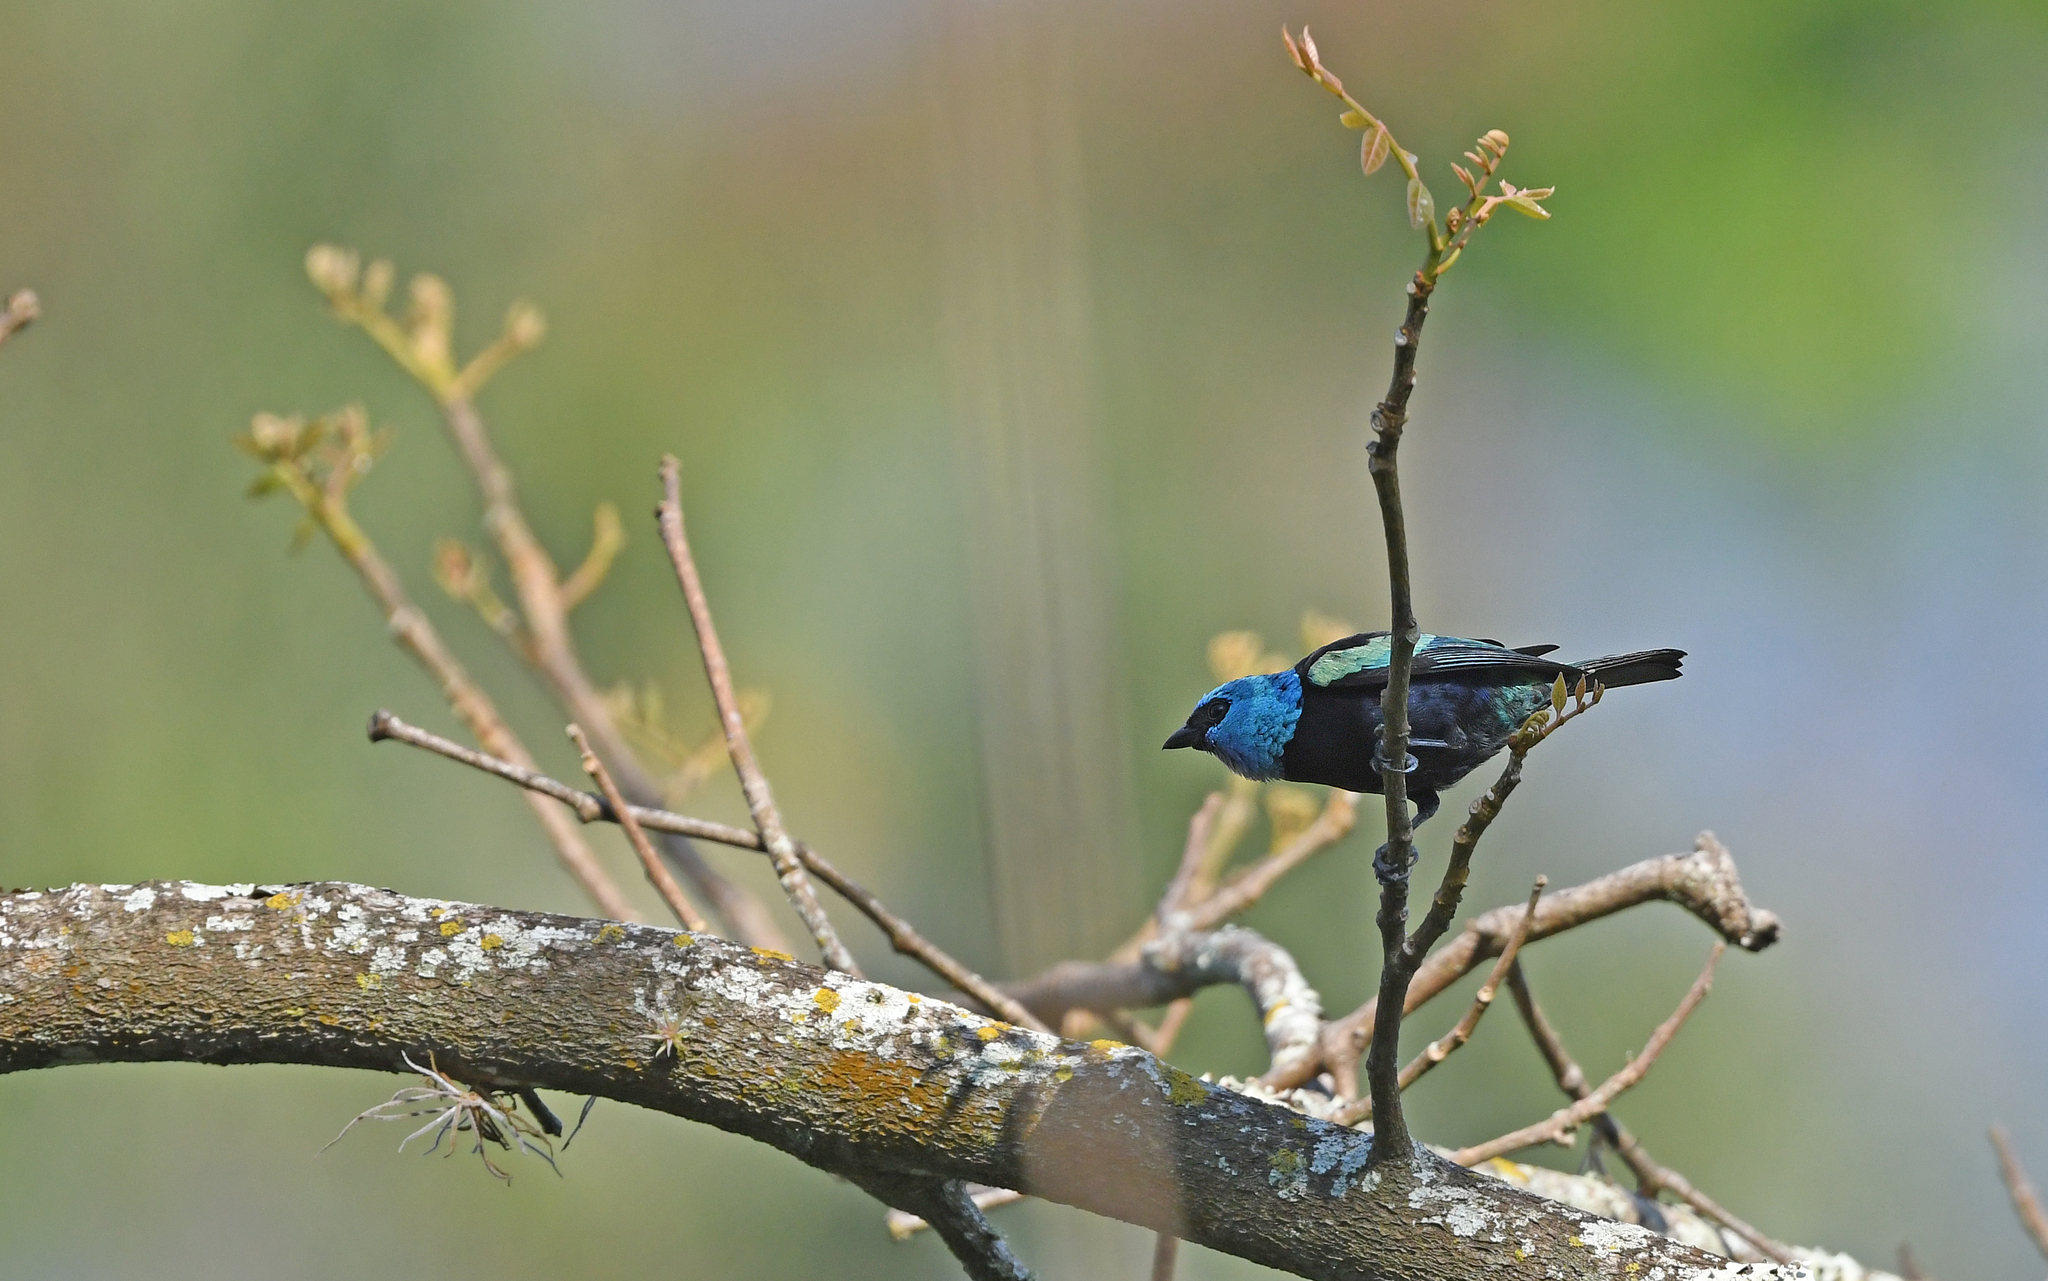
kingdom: Animalia
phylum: Chordata
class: Aves
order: Passeriformes
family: Thraupidae
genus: Stilpnia
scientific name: Stilpnia cyanicollis
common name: Blue-necked tanager
